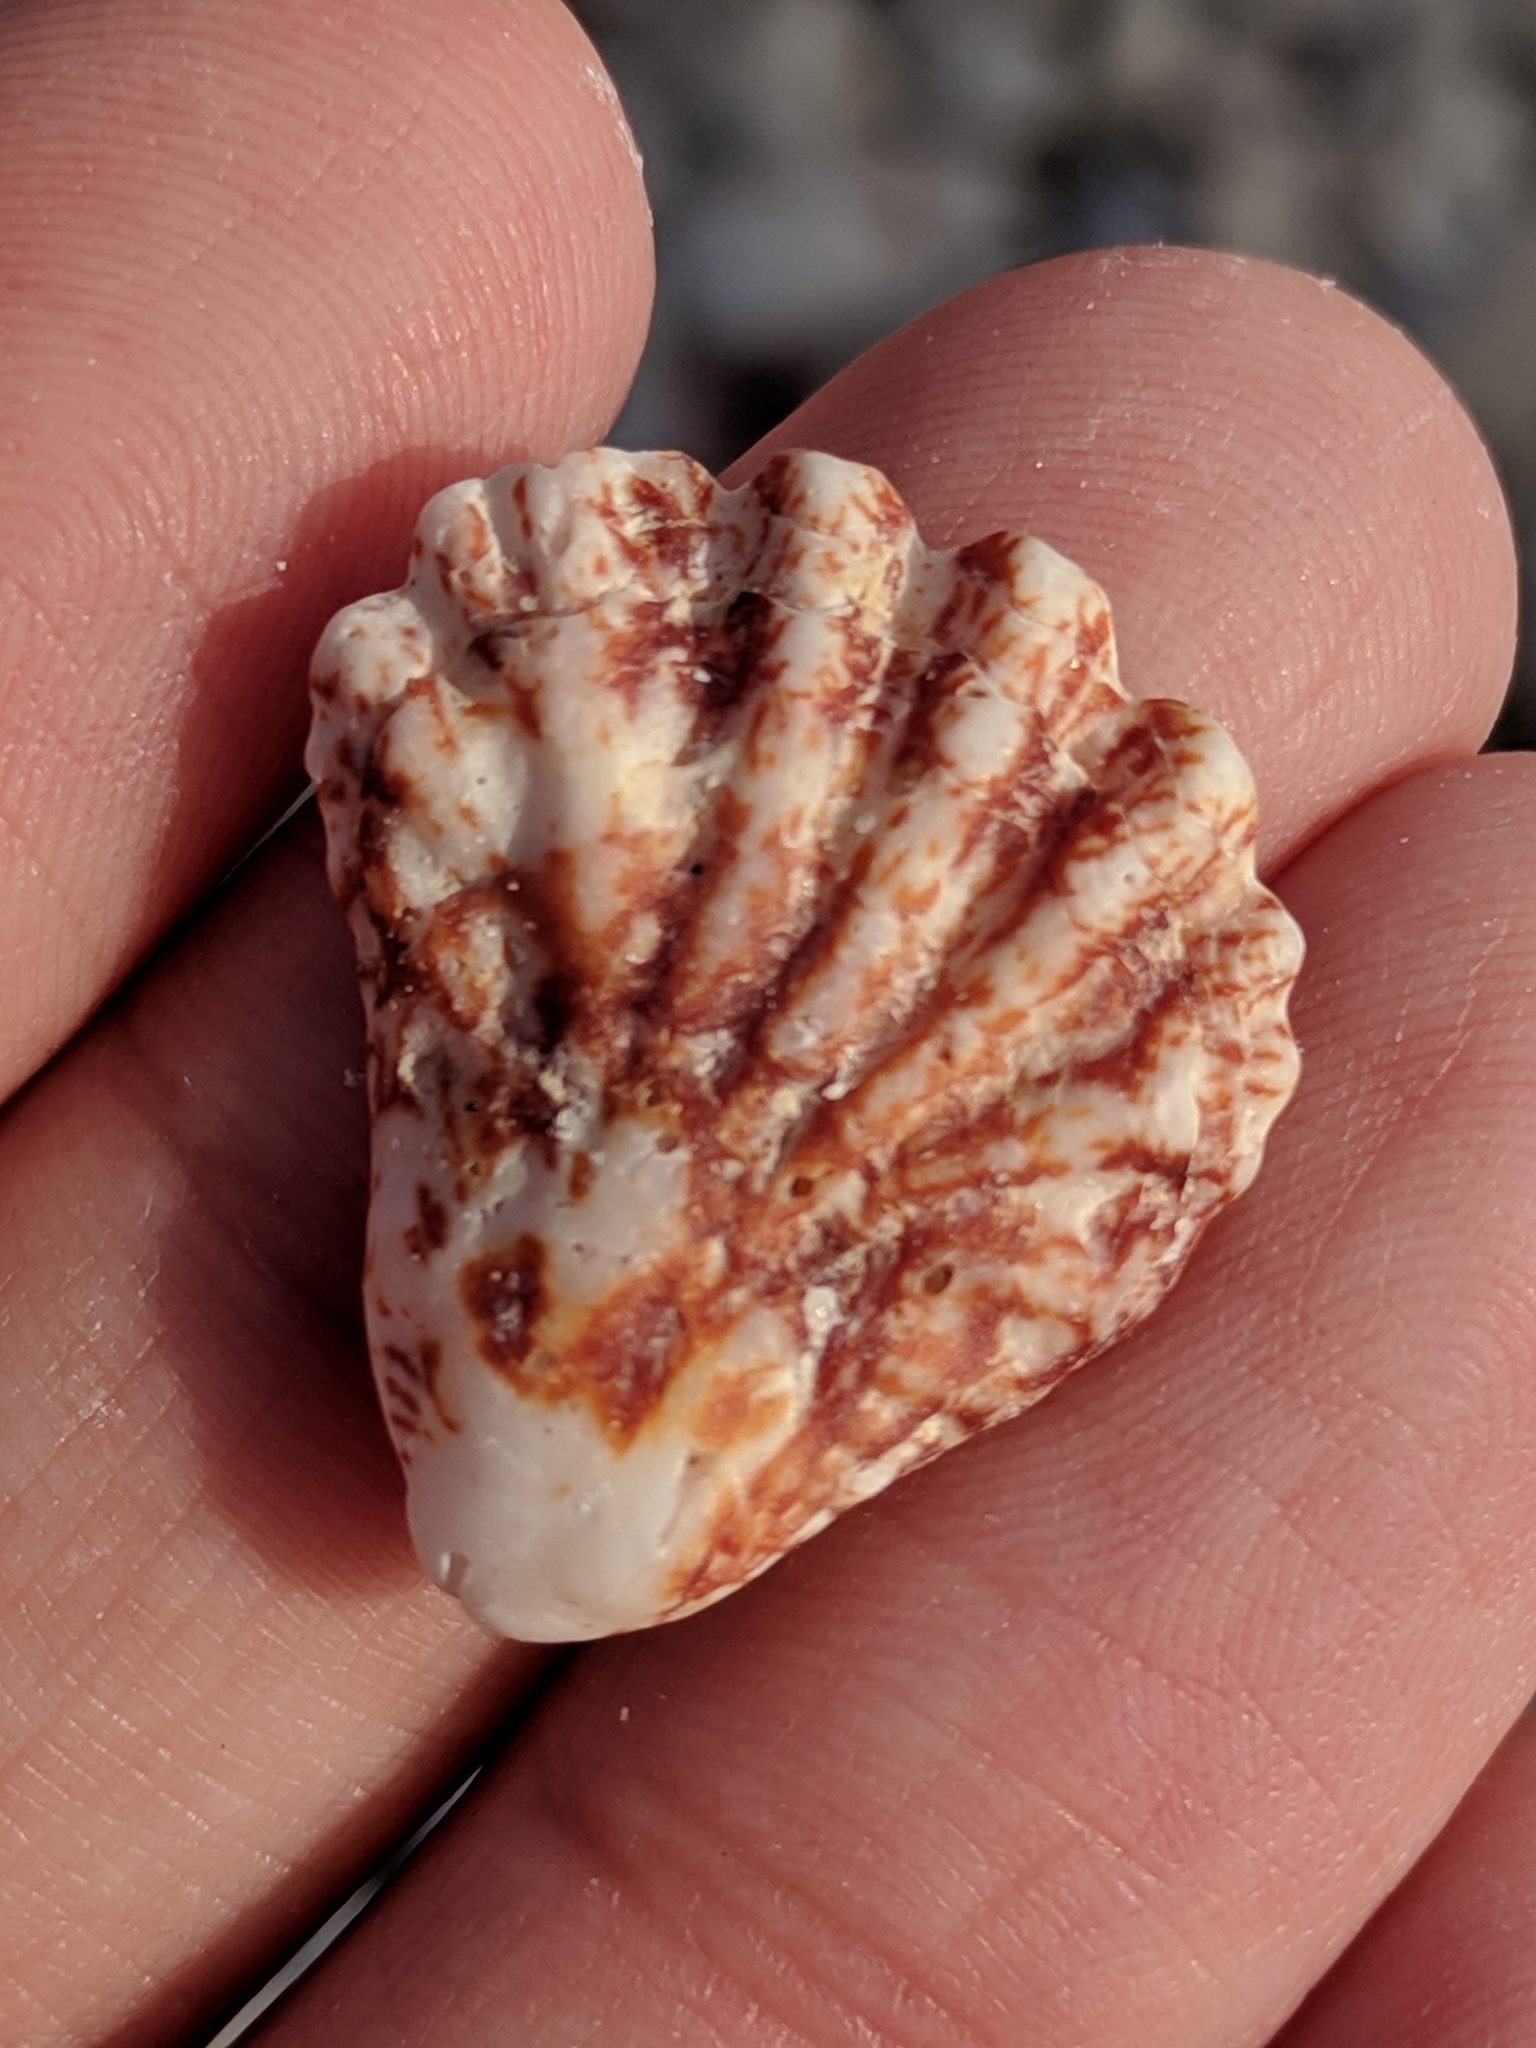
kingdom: Animalia
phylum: Mollusca
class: Bivalvia
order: Pectinida
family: Plicatulidae
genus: Plicatula
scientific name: Plicatula gibbosa
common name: Atlantic kitten's paw
